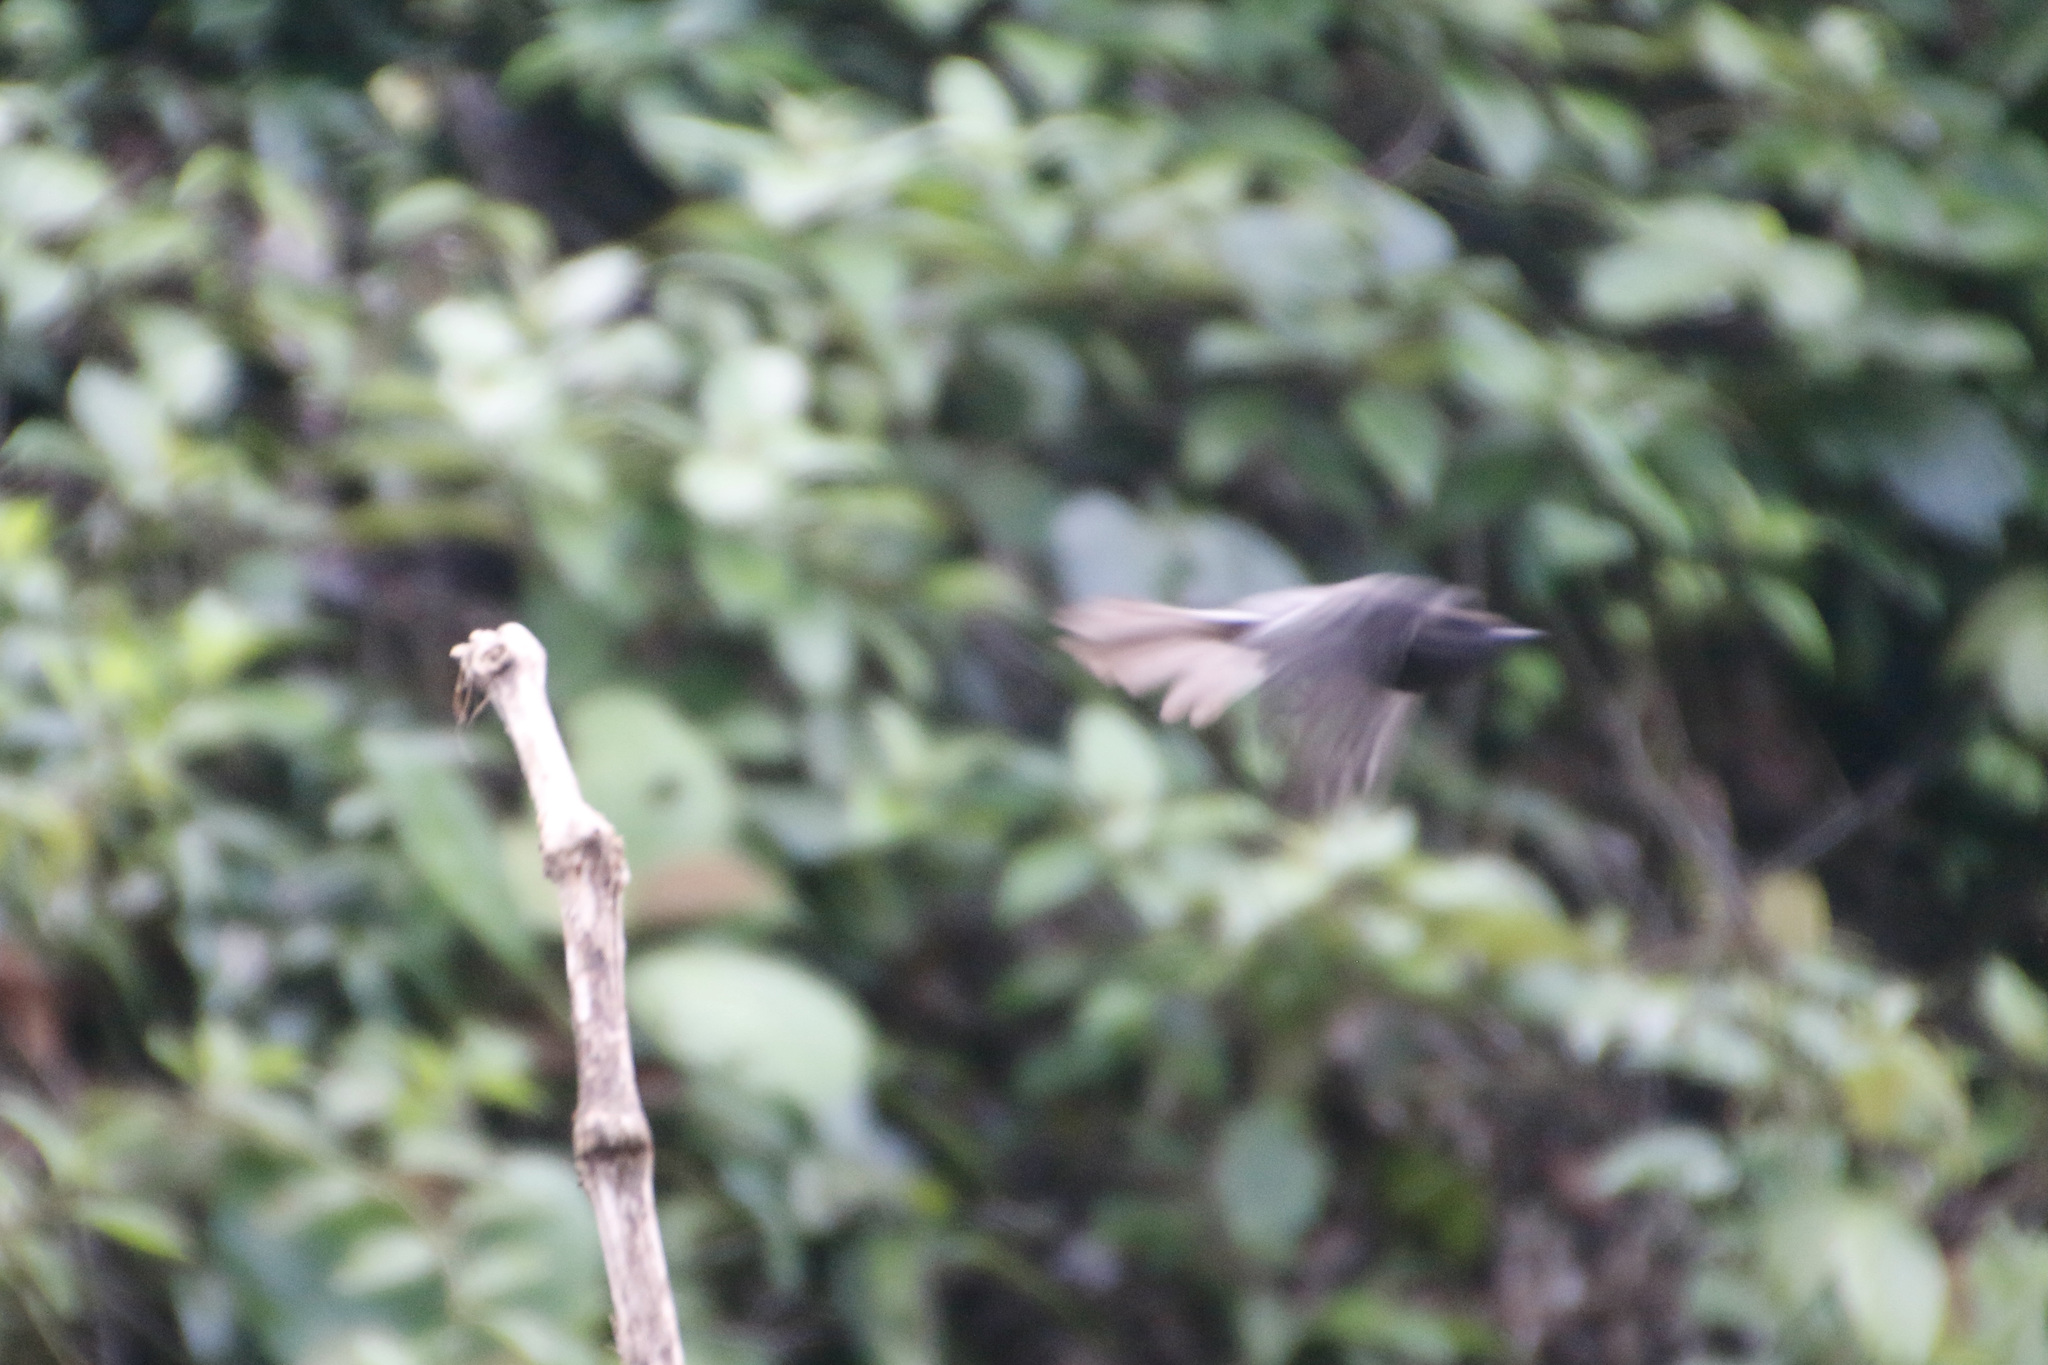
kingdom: Animalia
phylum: Chordata
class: Aves
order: Passeriformes
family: Tyrannidae
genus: Sayornis
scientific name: Sayornis nigricans
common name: Black phoebe
